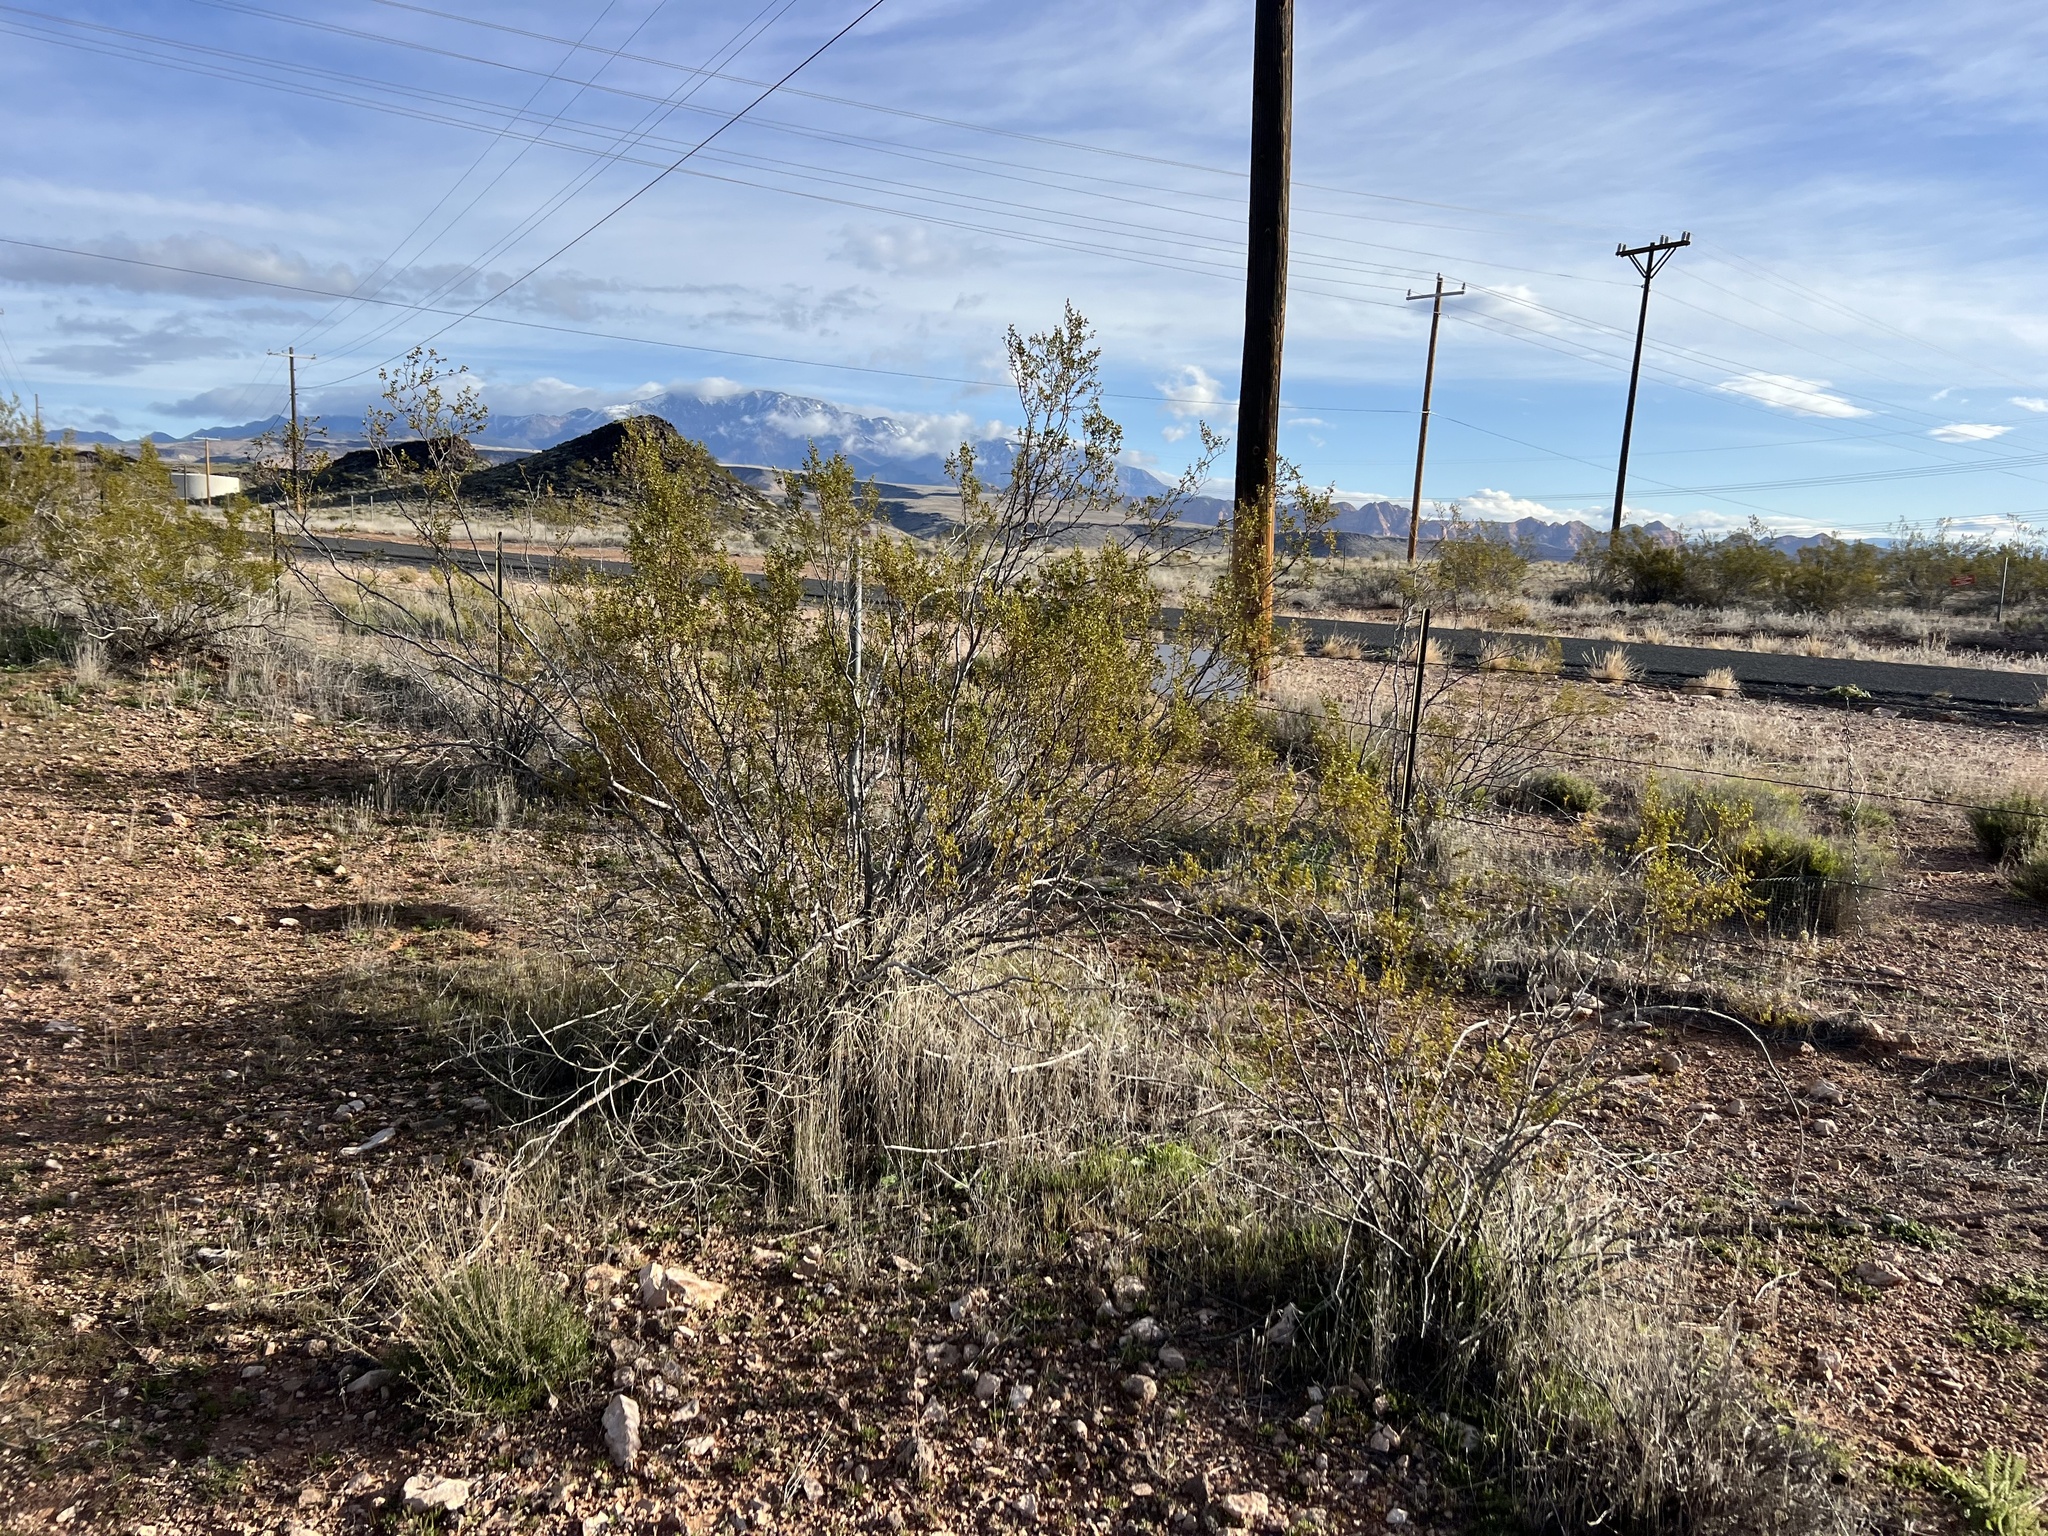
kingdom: Plantae
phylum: Tracheophyta
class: Magnoliopsida
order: Zygophyllales
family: Zygophyllaceae
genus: Larrea
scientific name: Larrea tridentata
